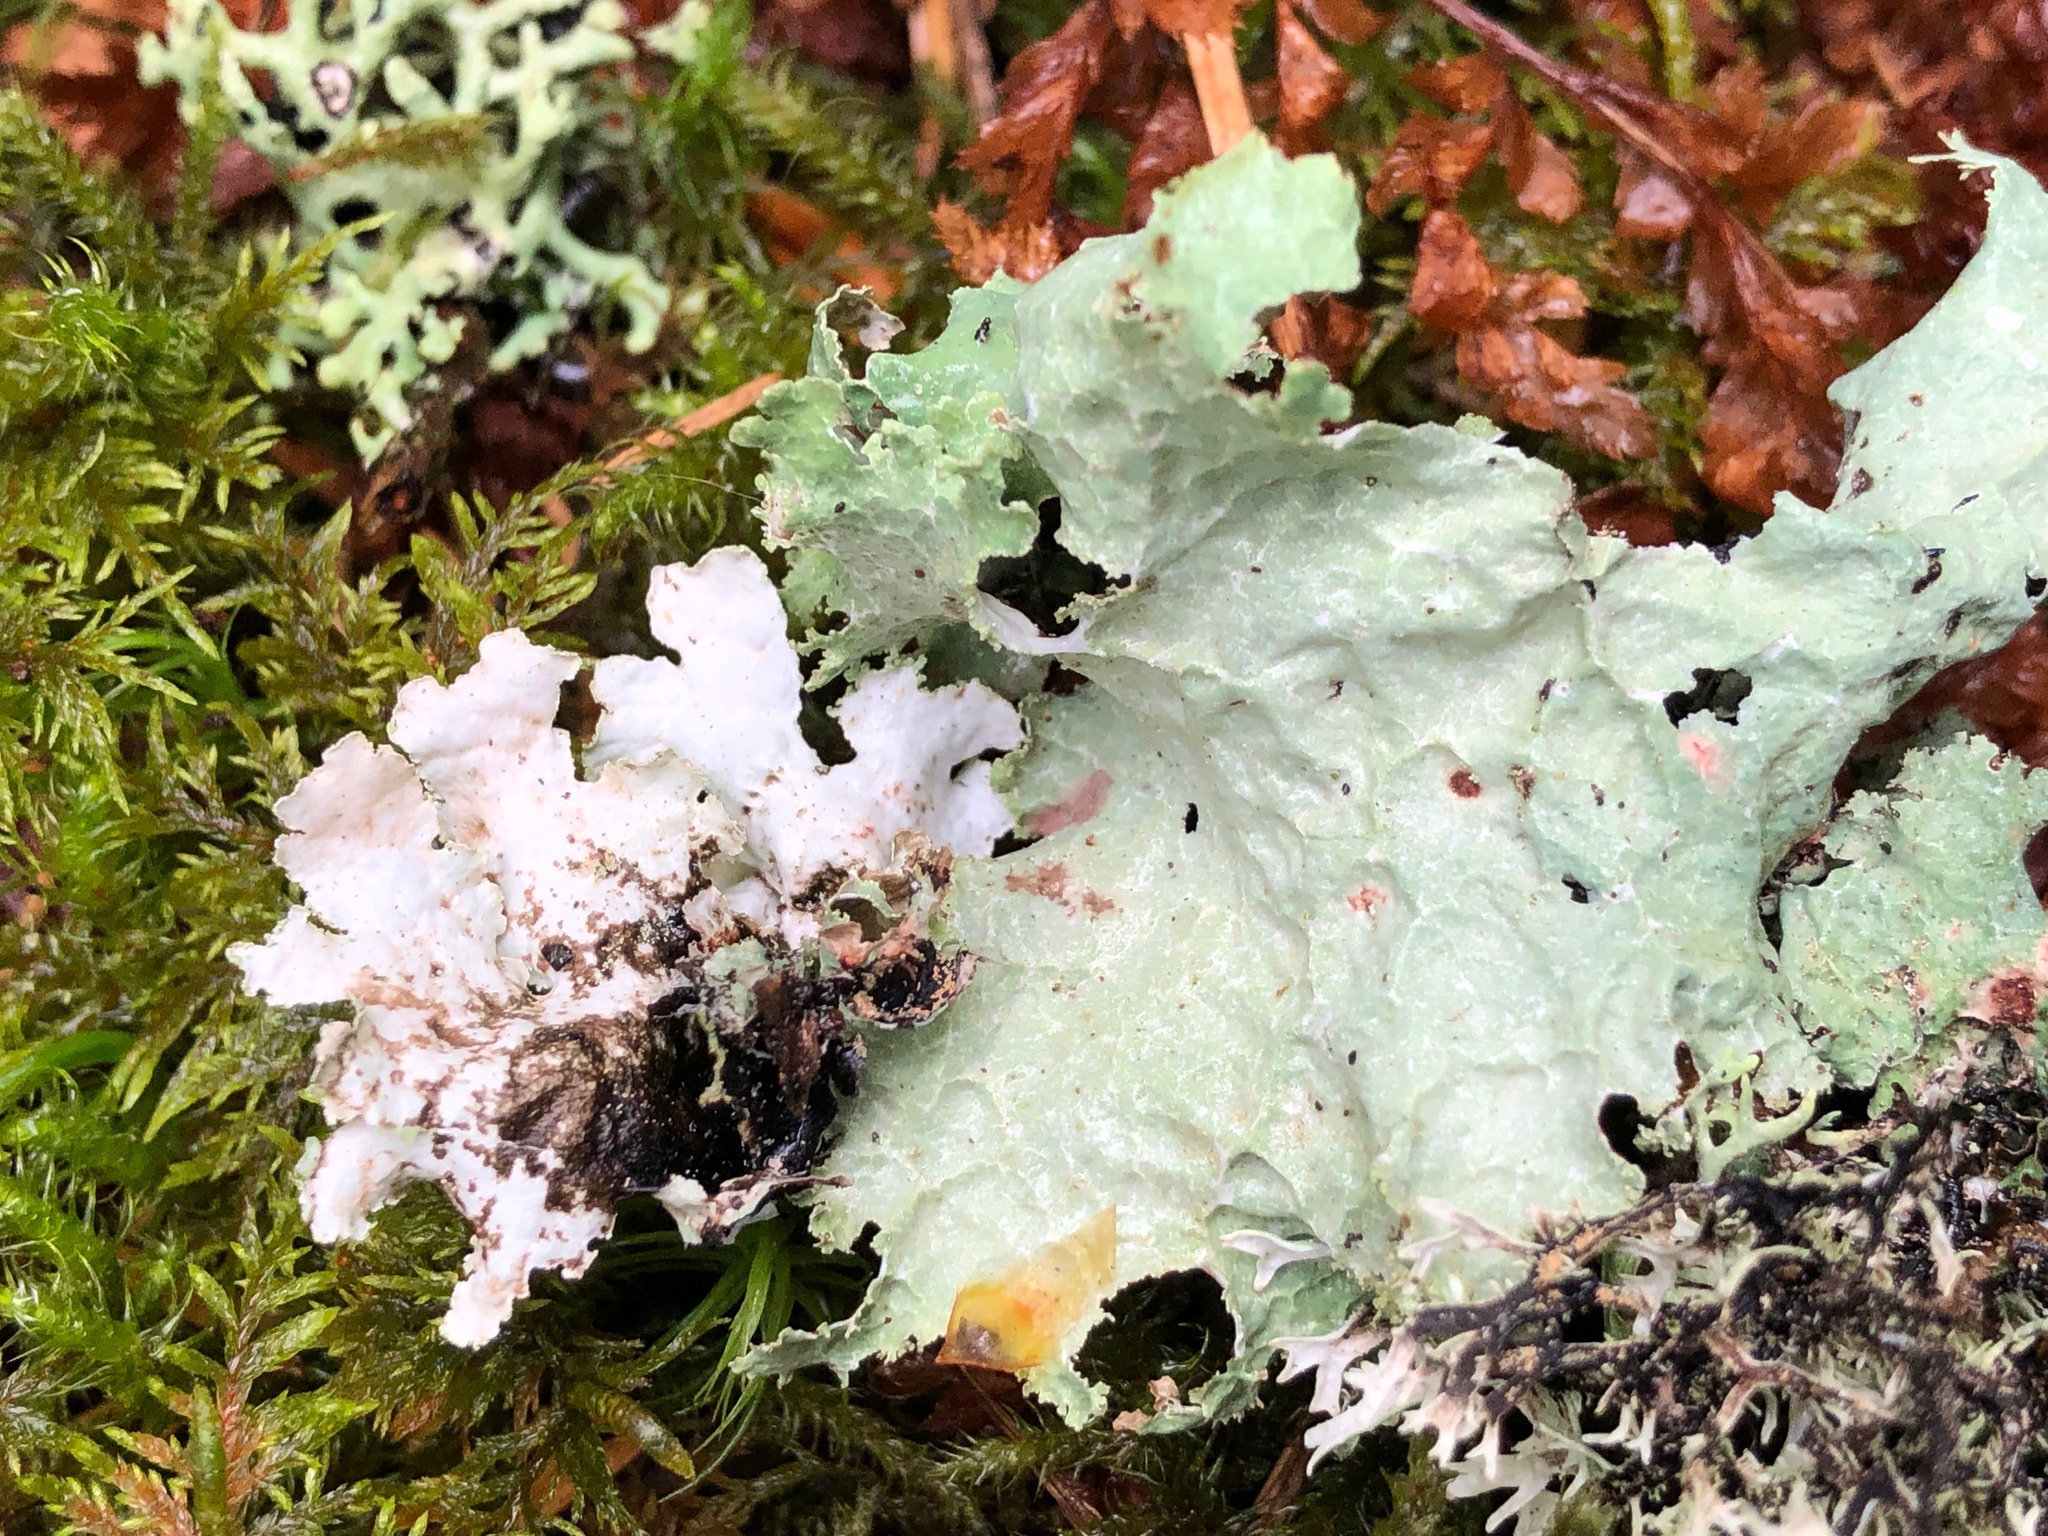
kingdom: Fungi
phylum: Ascomycota
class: Lecanoromycetes
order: Lecanorales
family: Parmeliaceae
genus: Platismatia
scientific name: Platismatia glauca
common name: Varied rag lichen
